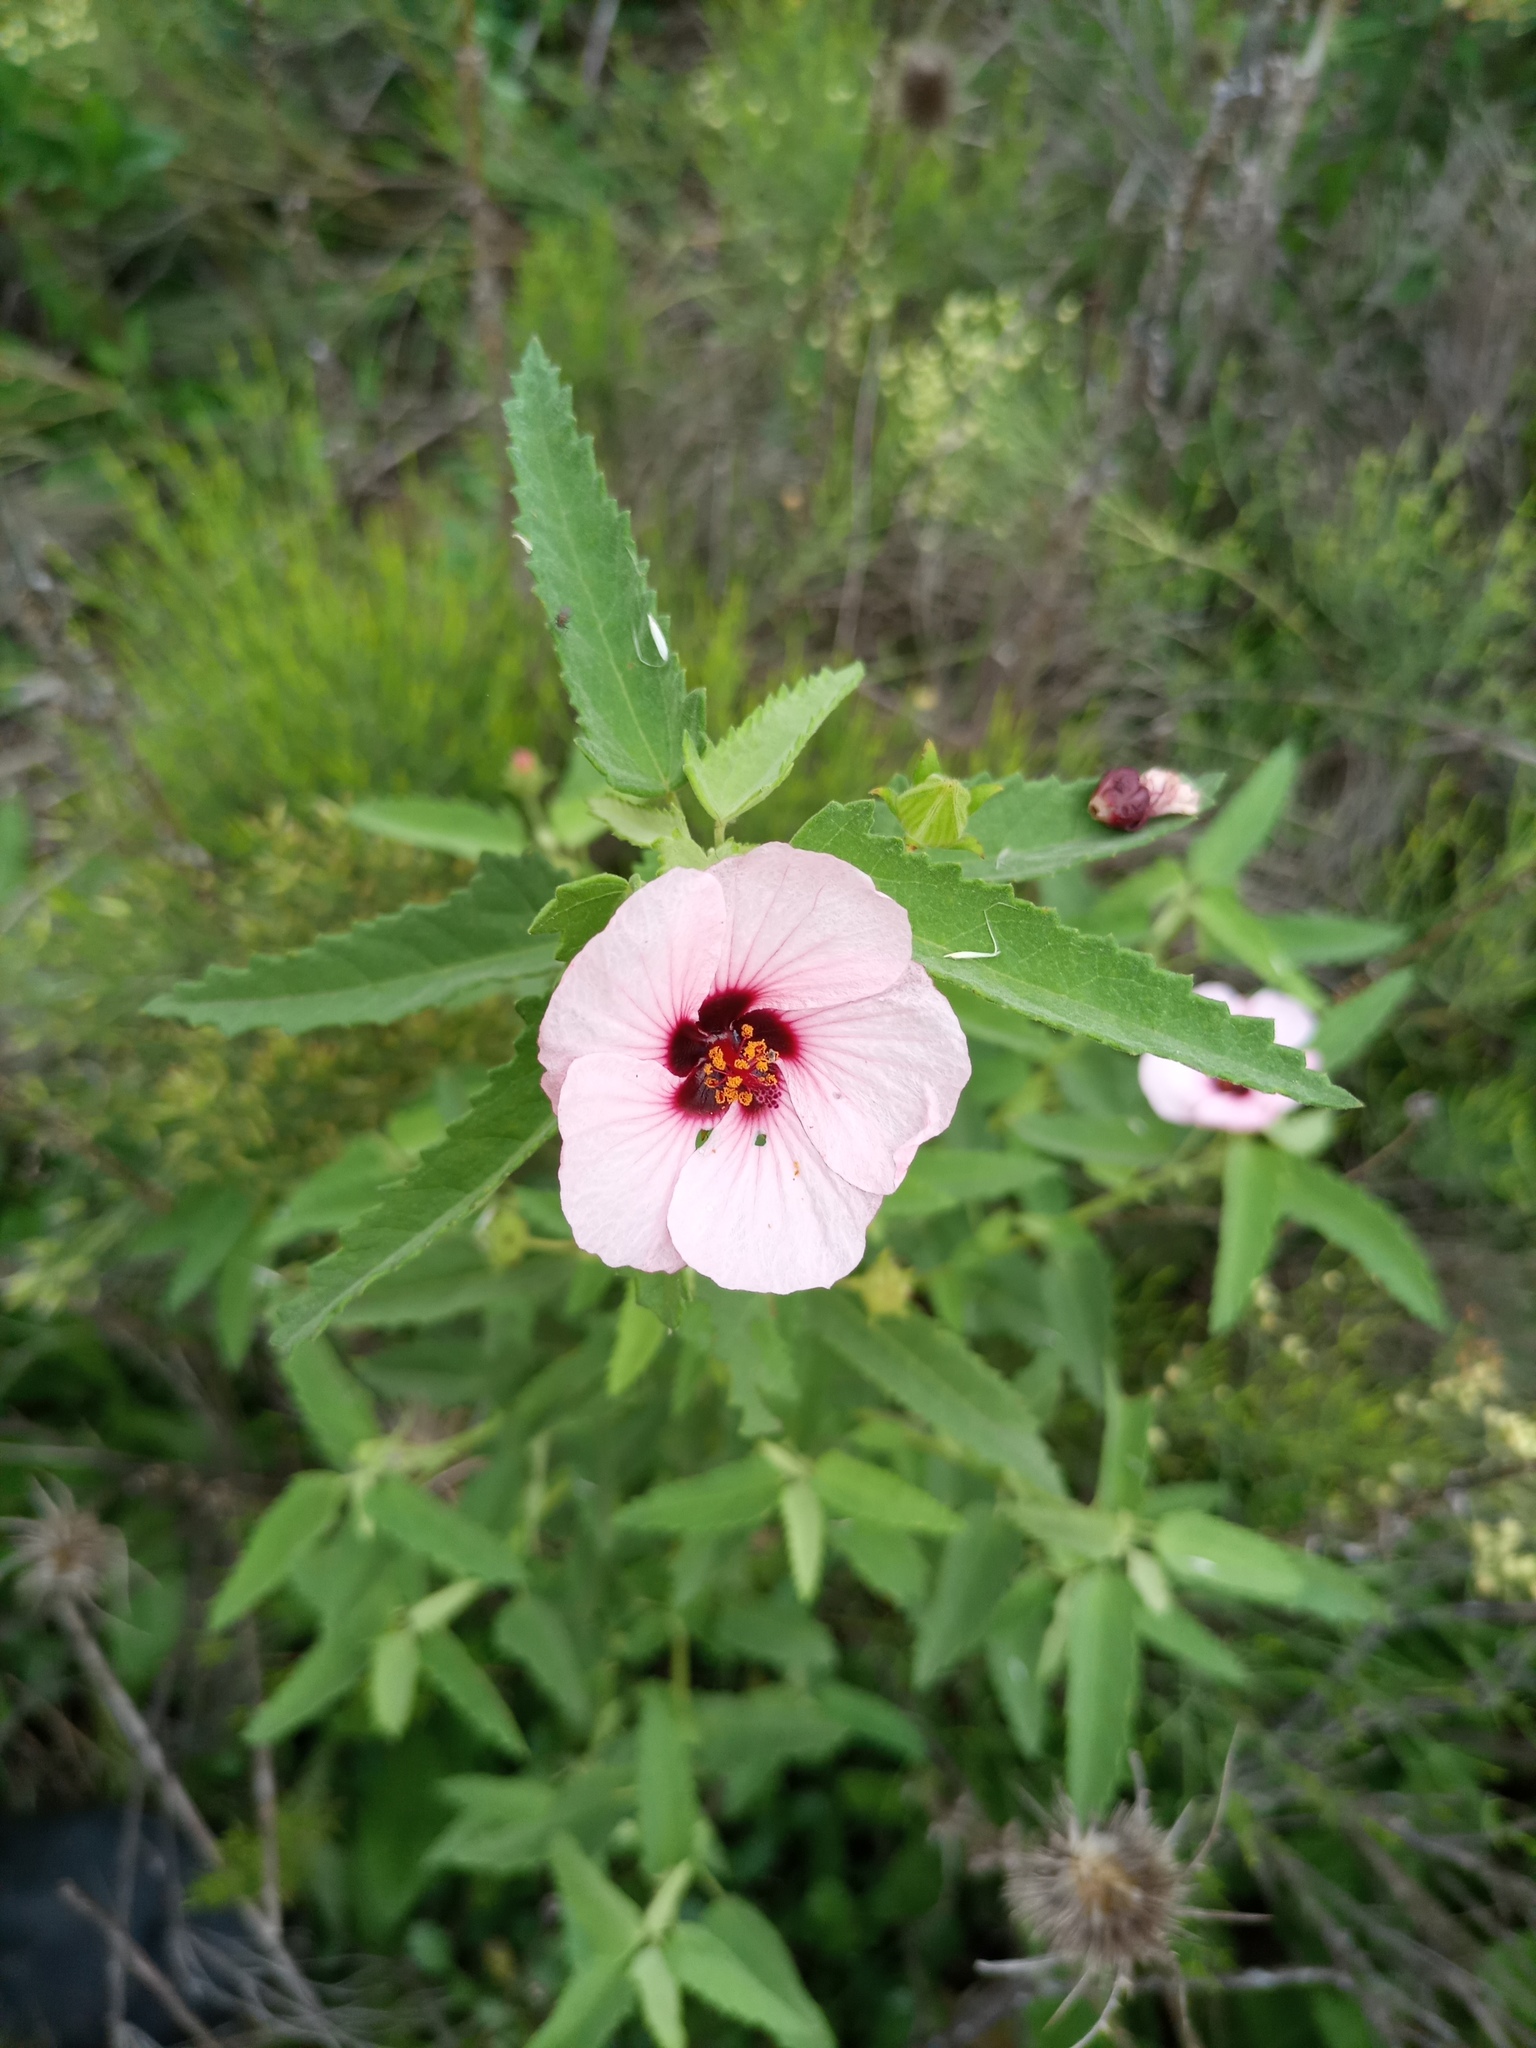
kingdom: Plantae
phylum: Tracheophyta
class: Magnoliopsida
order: Malvales
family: Malvaceae
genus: Pavonia
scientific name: Pavonia hastata
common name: Spearleaf swampmallow
